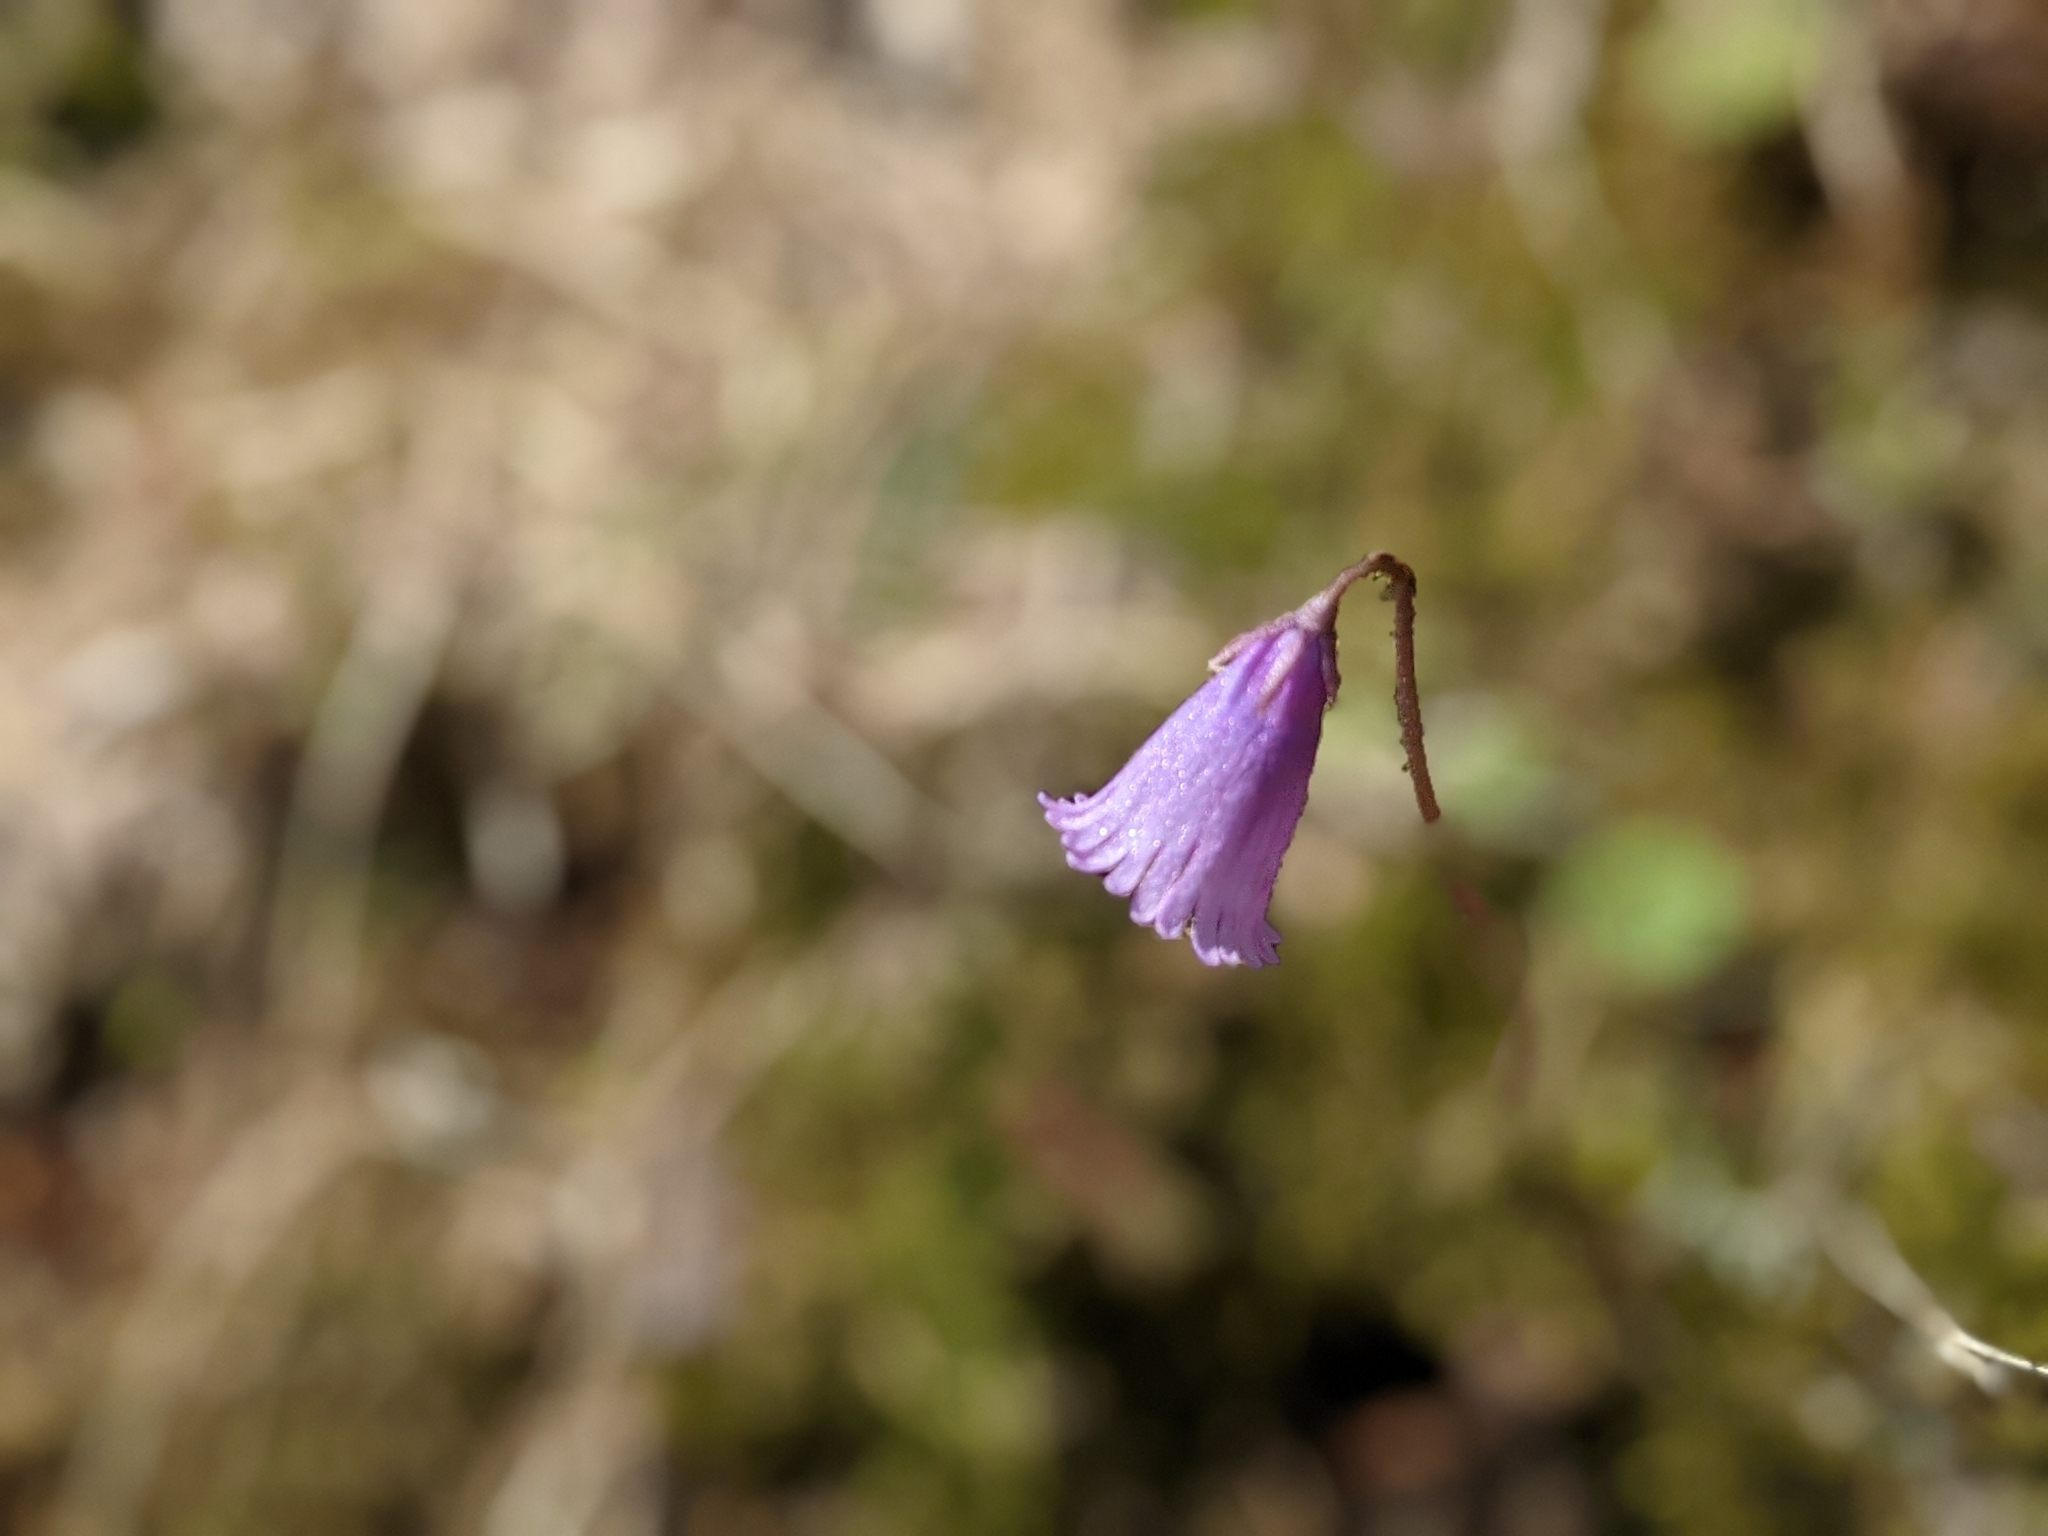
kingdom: Plantae
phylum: Tracheophyta
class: Magnoliopsida
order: Ericales
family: Primulaceae
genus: Soldanella
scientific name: Soldanella pusilla
